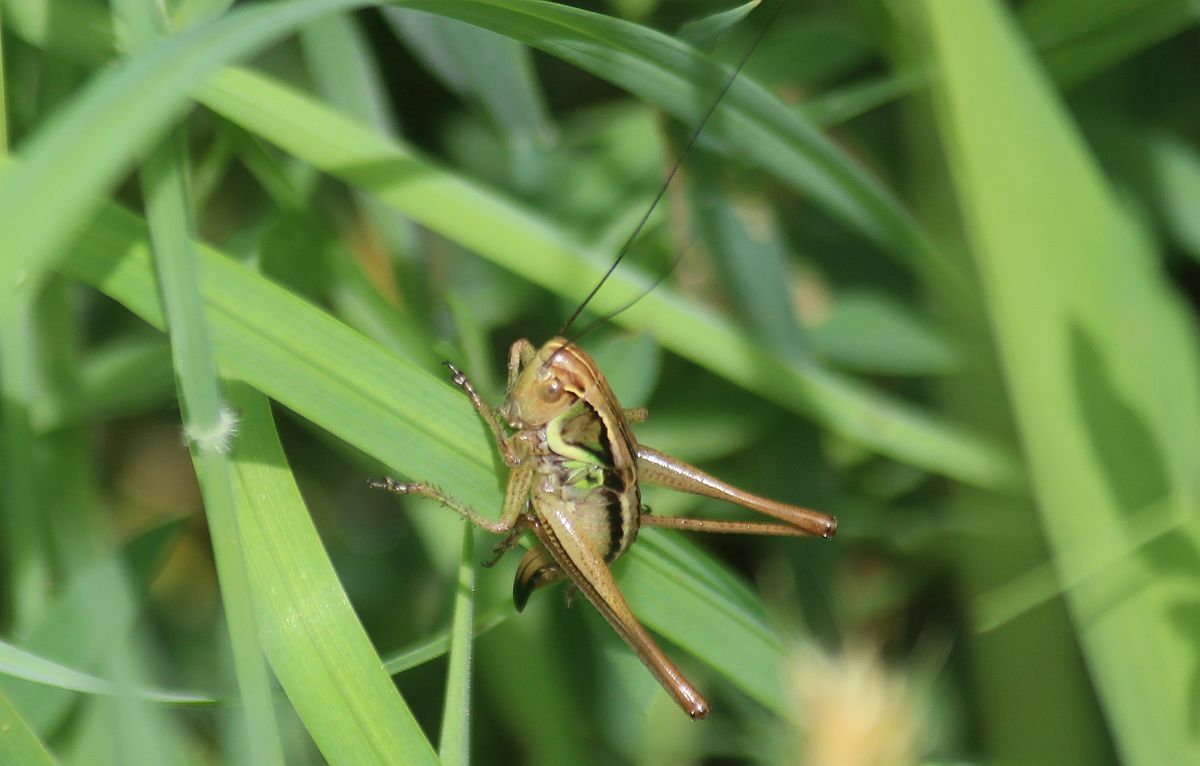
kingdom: Animalia
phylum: Arthropoda
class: Insecta
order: Orthoptera
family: Tettigoniidae
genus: Roeseliana
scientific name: Roeseliana roeselii
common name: Roesel's bush cricket
